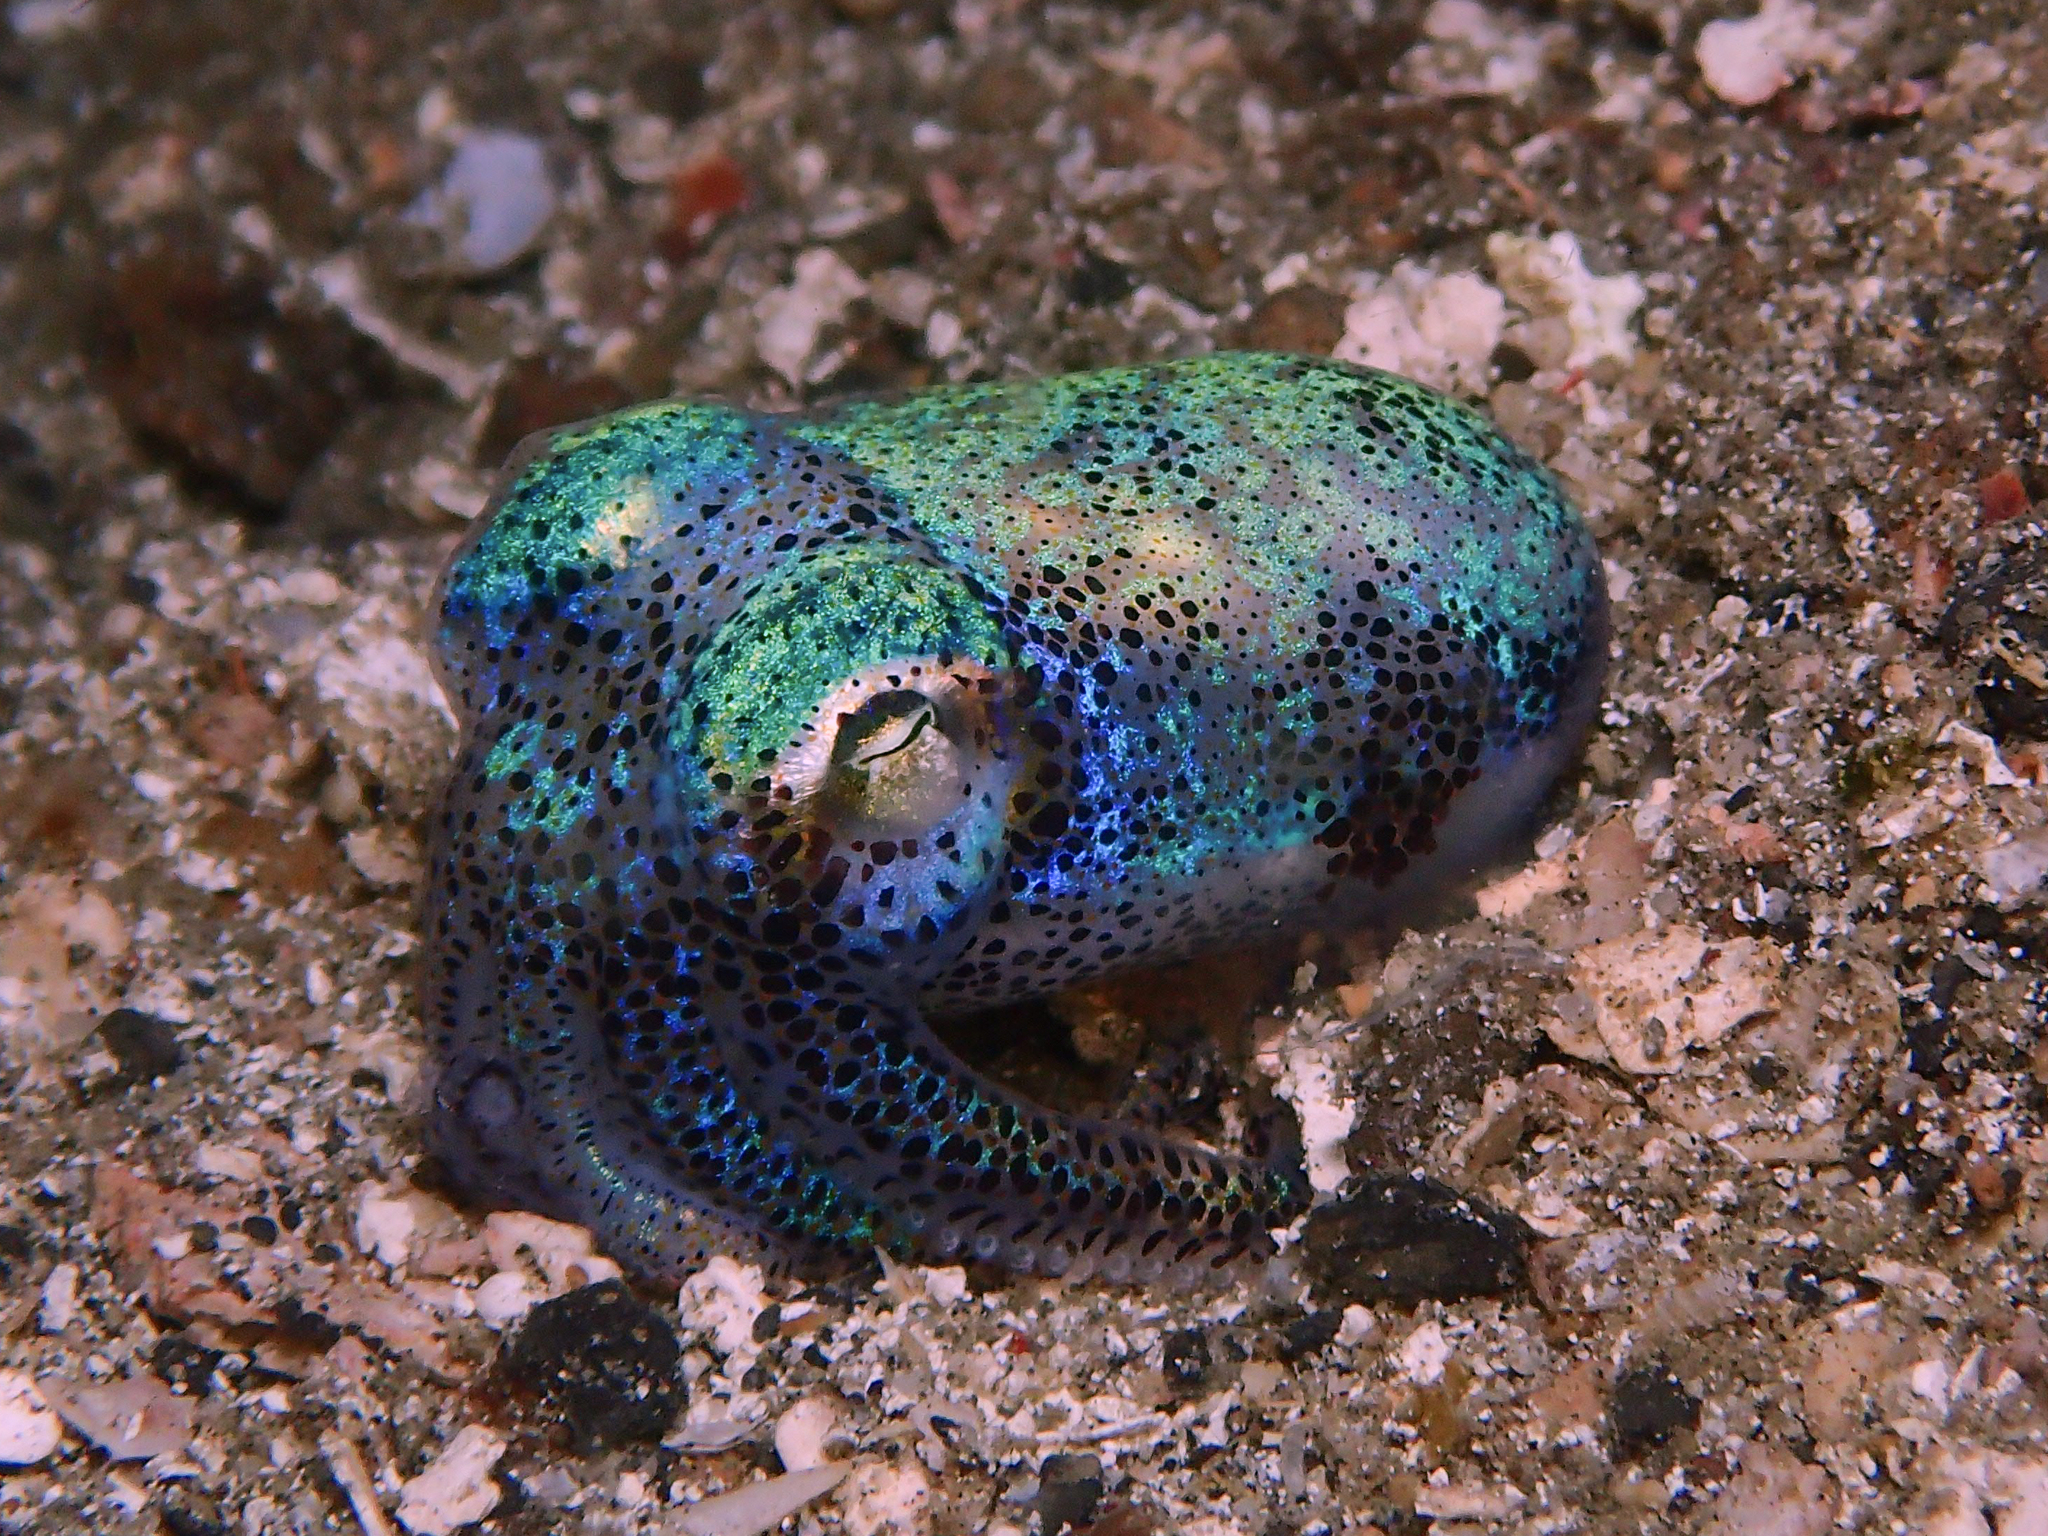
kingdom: Animalia
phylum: Mollusca
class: Cephalopoda
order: Sepiida
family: Sepiolidae
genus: Euprymna
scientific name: Euprymna berryi
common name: Humming-bird bobtail squid
